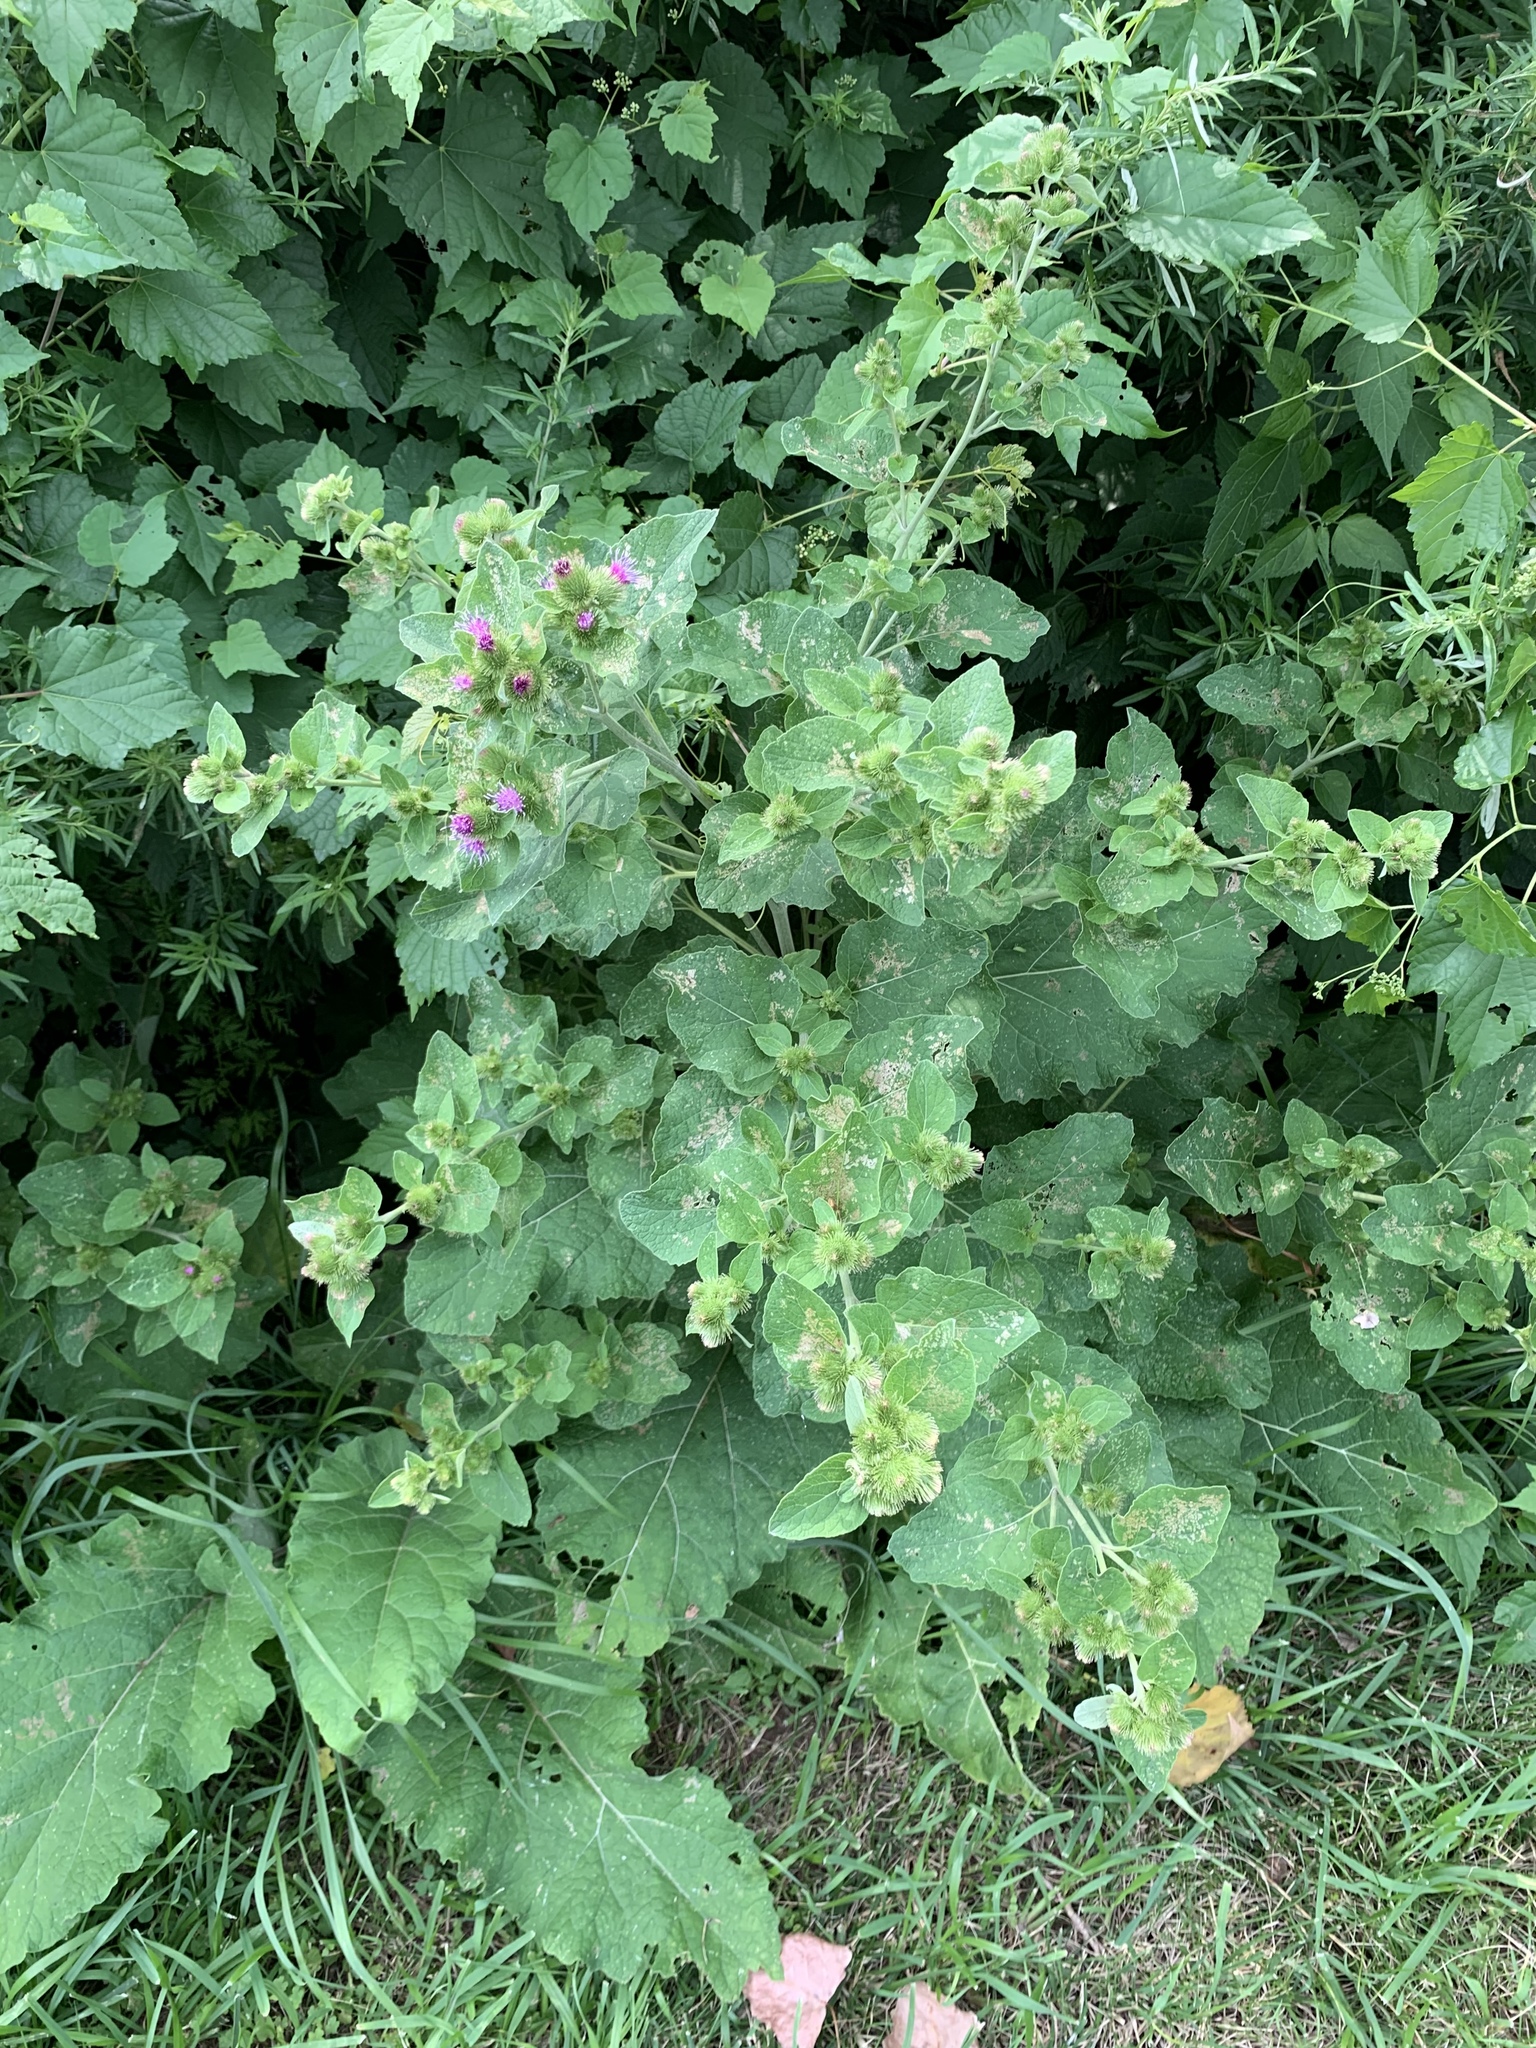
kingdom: Plantae
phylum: Tracheophyta
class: Magnoliopsida
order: Asterales
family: Asteraceae
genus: Arctium
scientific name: Arctium minus
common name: Lesser burdock
